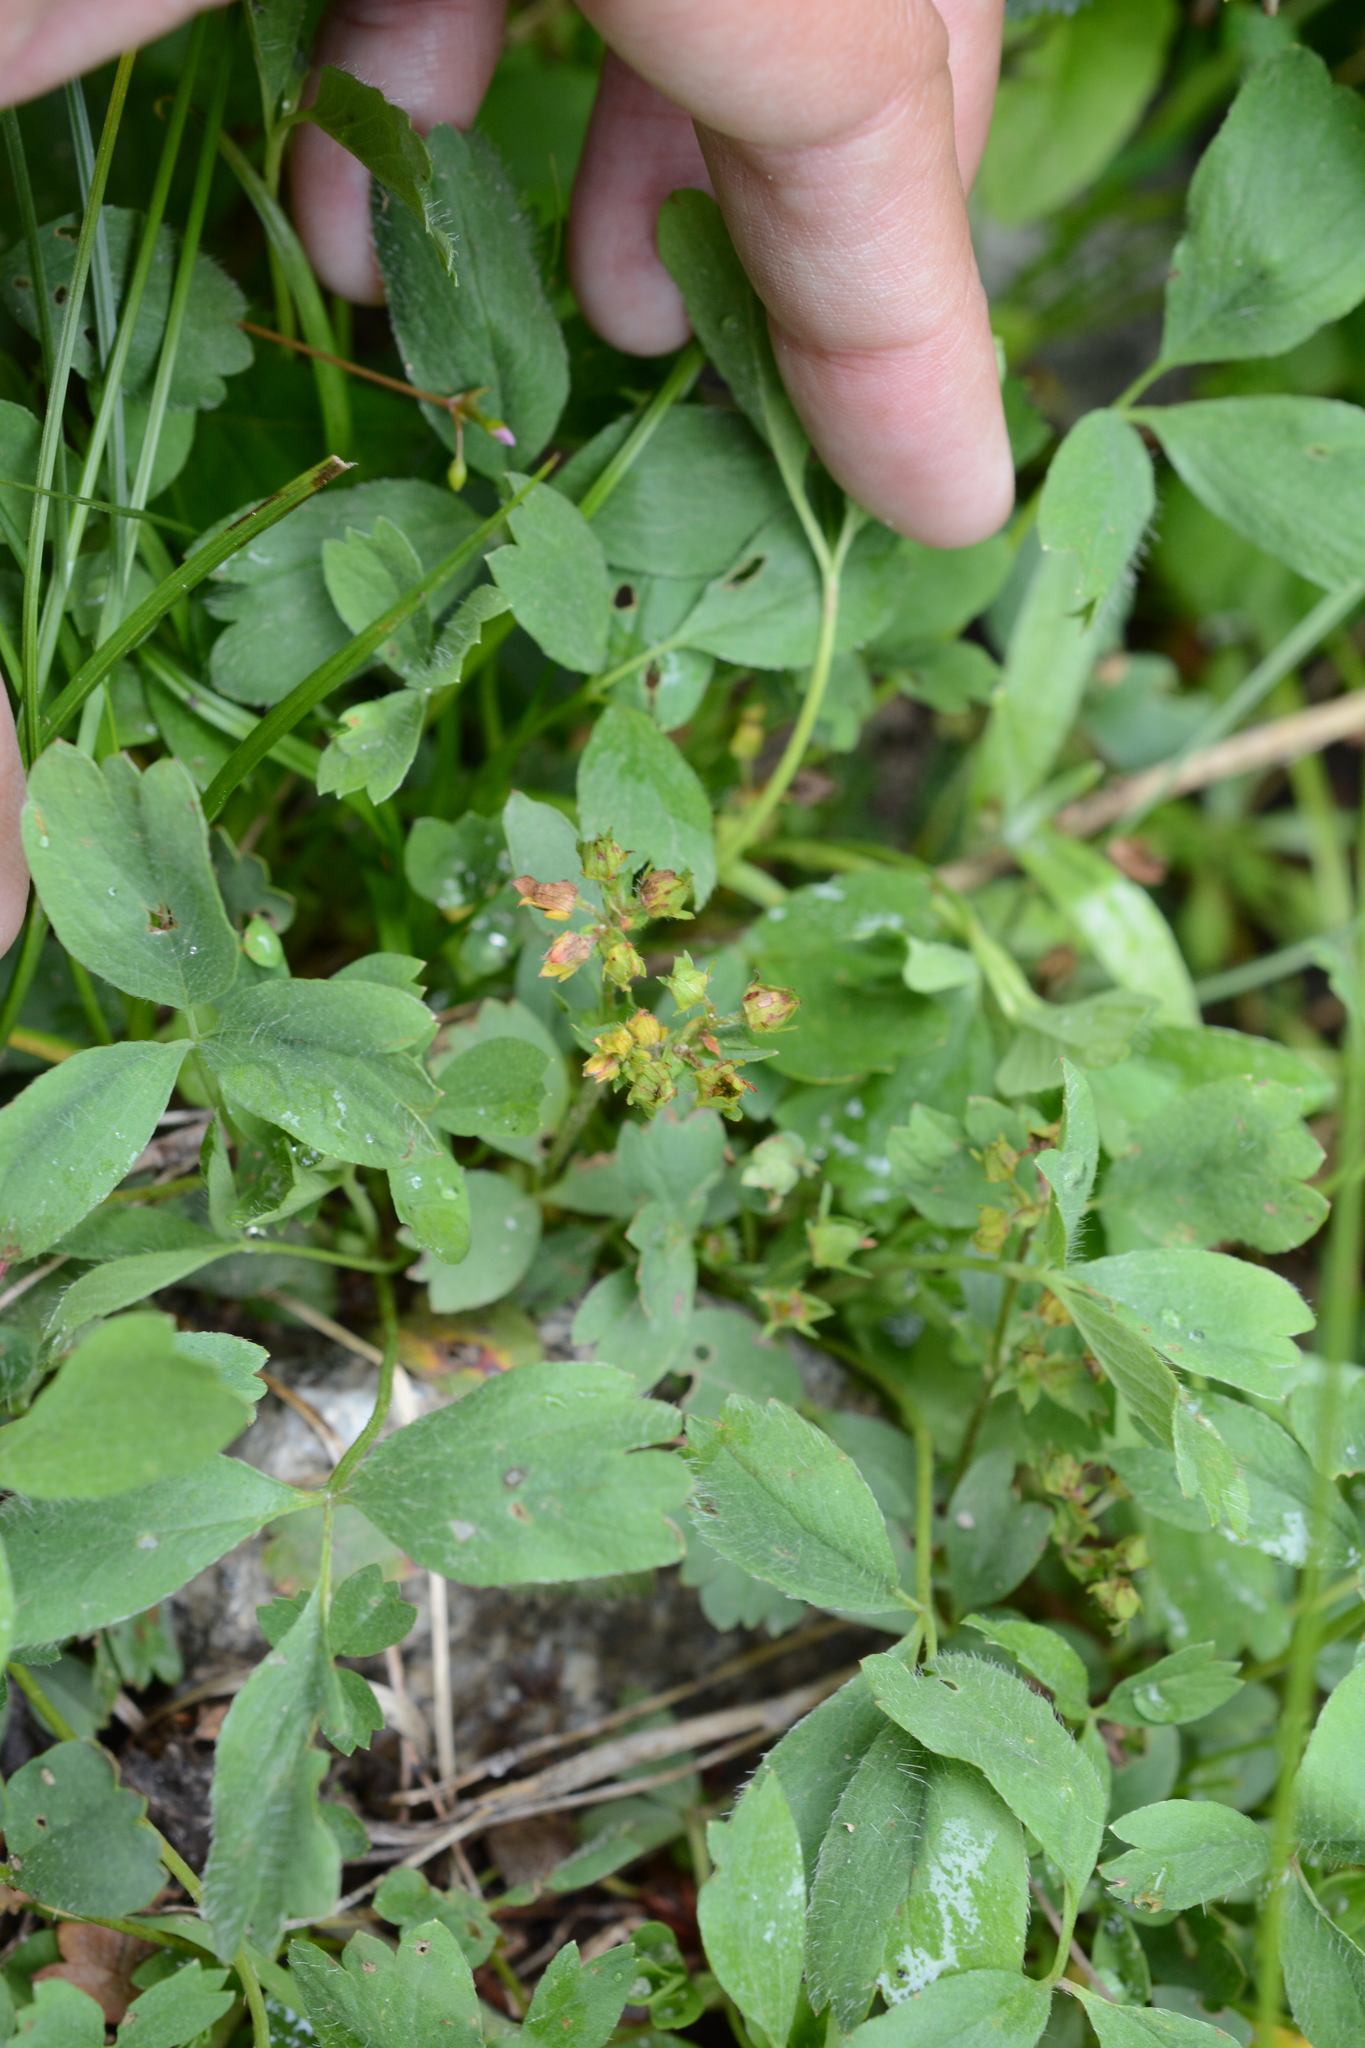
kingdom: Plantae
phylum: Tracheophyta
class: Magnoliopsida
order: Rosales
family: Rosaceae
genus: Sibbaldia
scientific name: Sibbaldia procumbens
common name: Creeping sibbaldia
